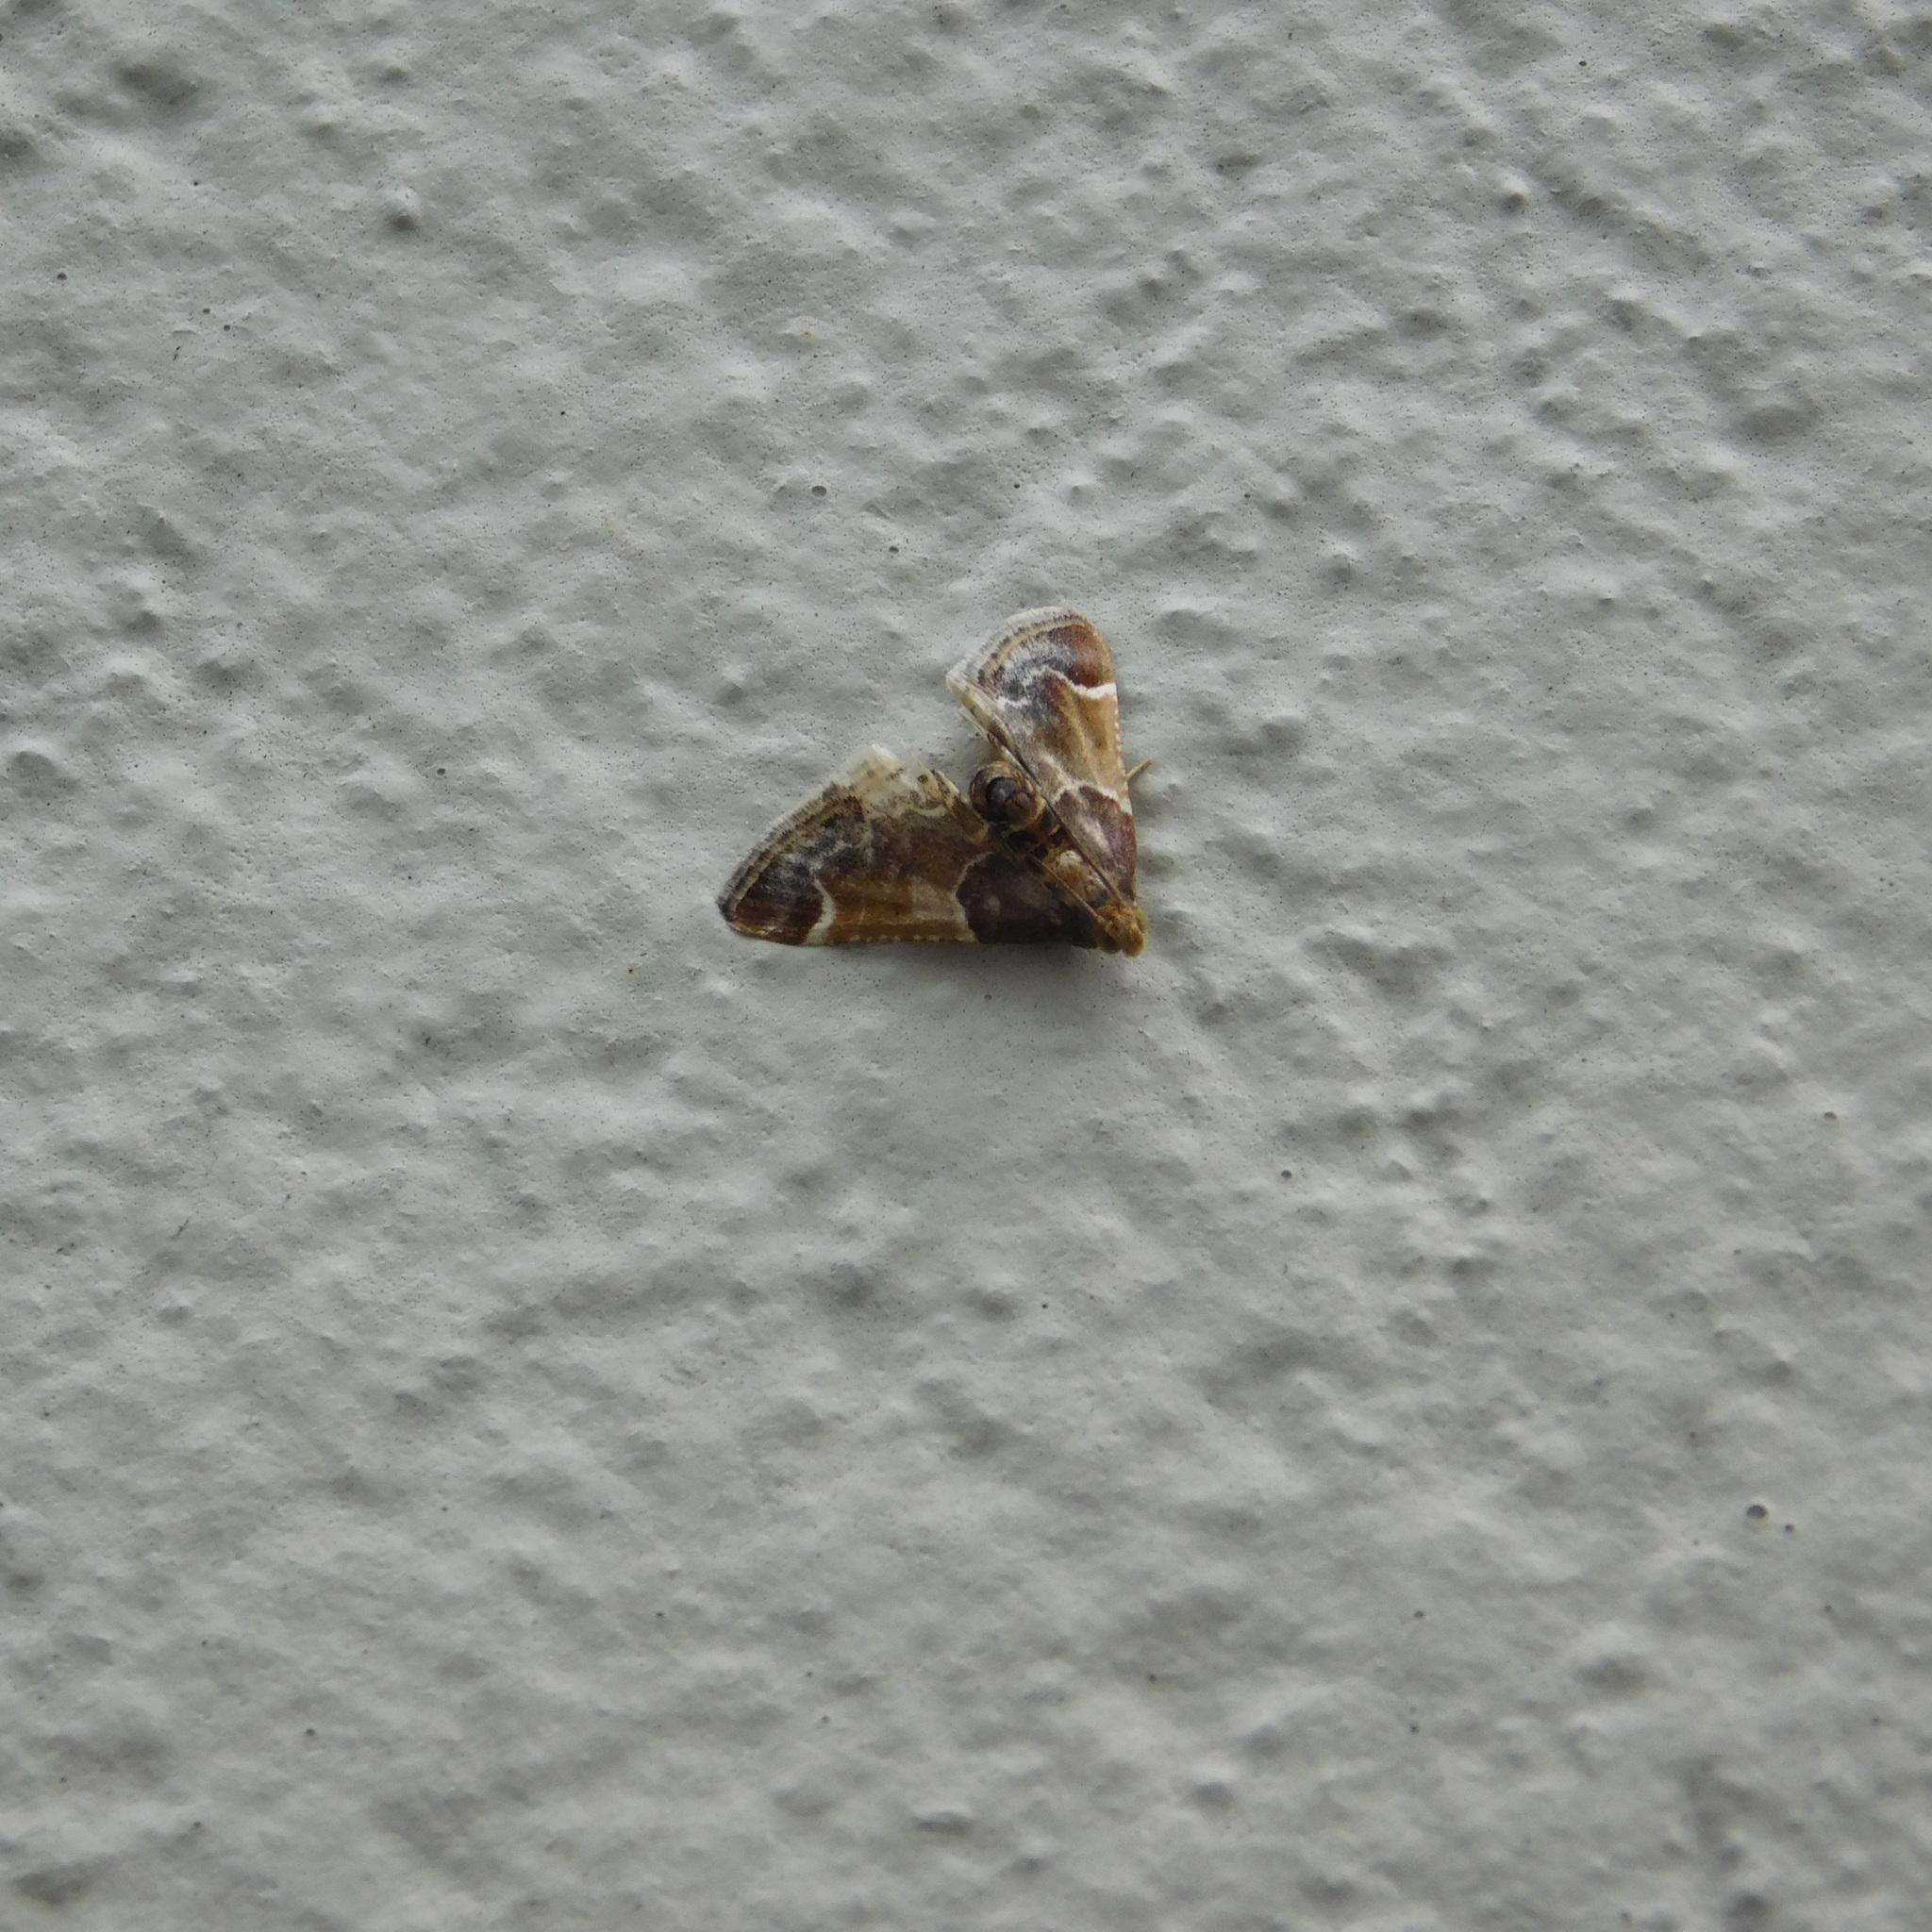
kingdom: Animalia
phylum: Arthropoda
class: Insecta
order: Lepidoptera
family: Pyralidae
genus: Pyralis
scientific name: Pyralis farinalis
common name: Meal moth
